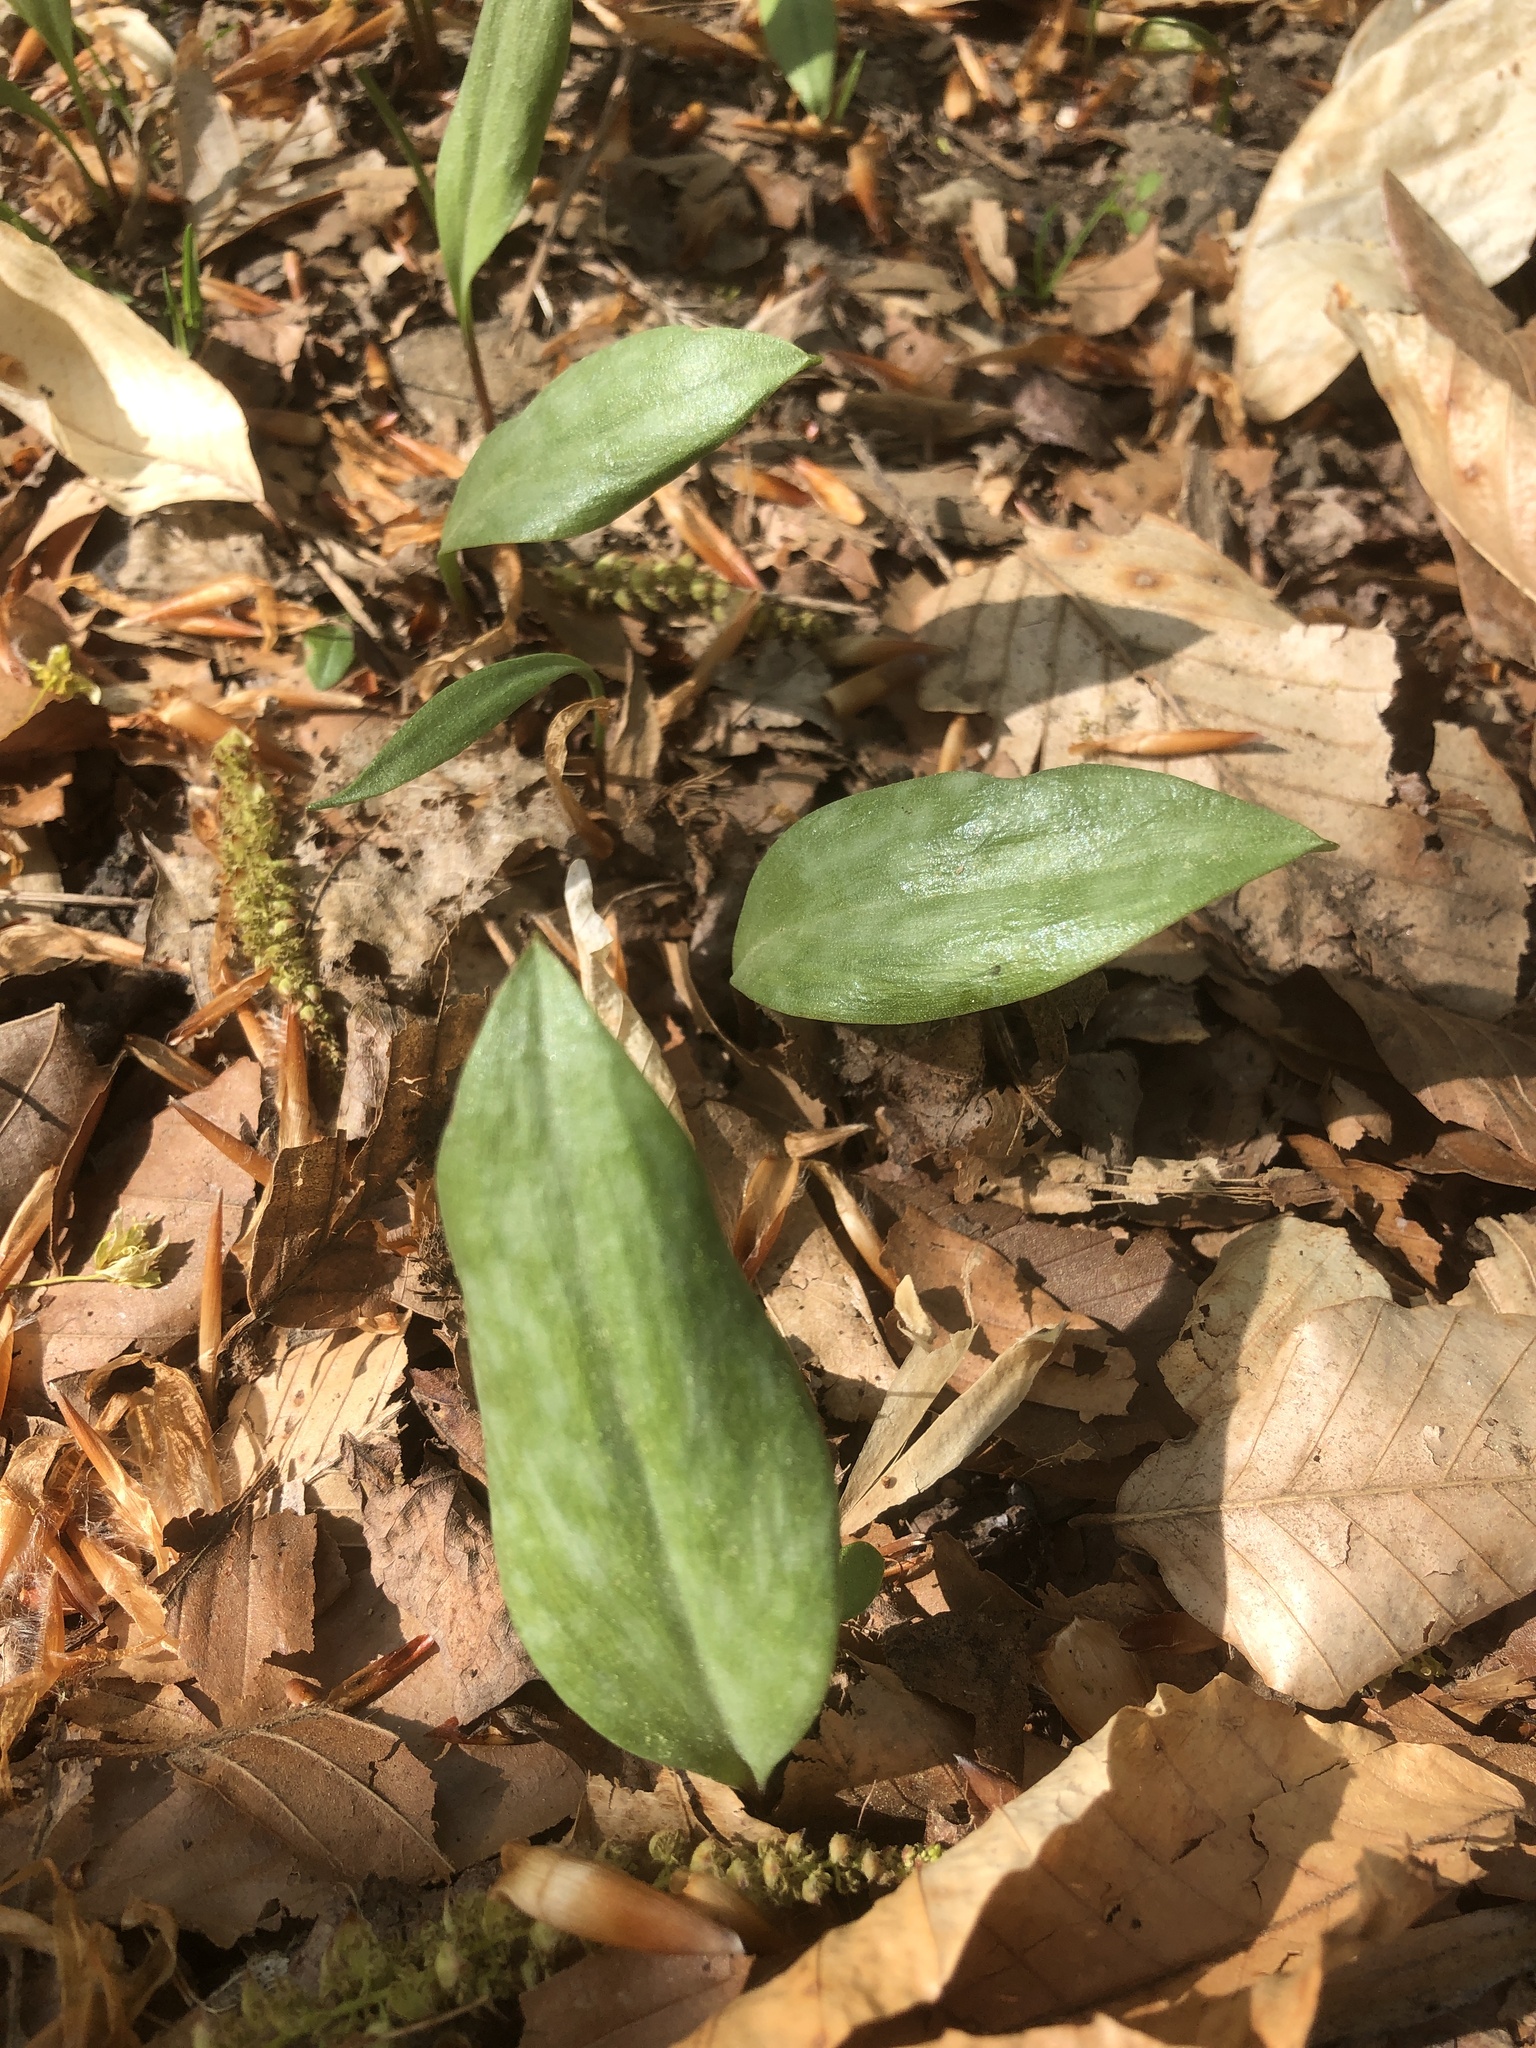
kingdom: Plantae
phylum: Tracheophyta
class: Liliopsida
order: Liliales
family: Liliaceae
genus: Erythronium
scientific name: Erythronium americanum
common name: Yellow adder's-tongue
